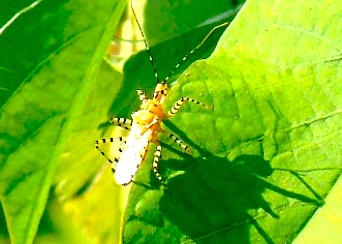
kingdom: Animalia
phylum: Arthropoda
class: Insecta
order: Hemiptera
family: Reduviidae
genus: Pselliopus
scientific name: Pselliopus
